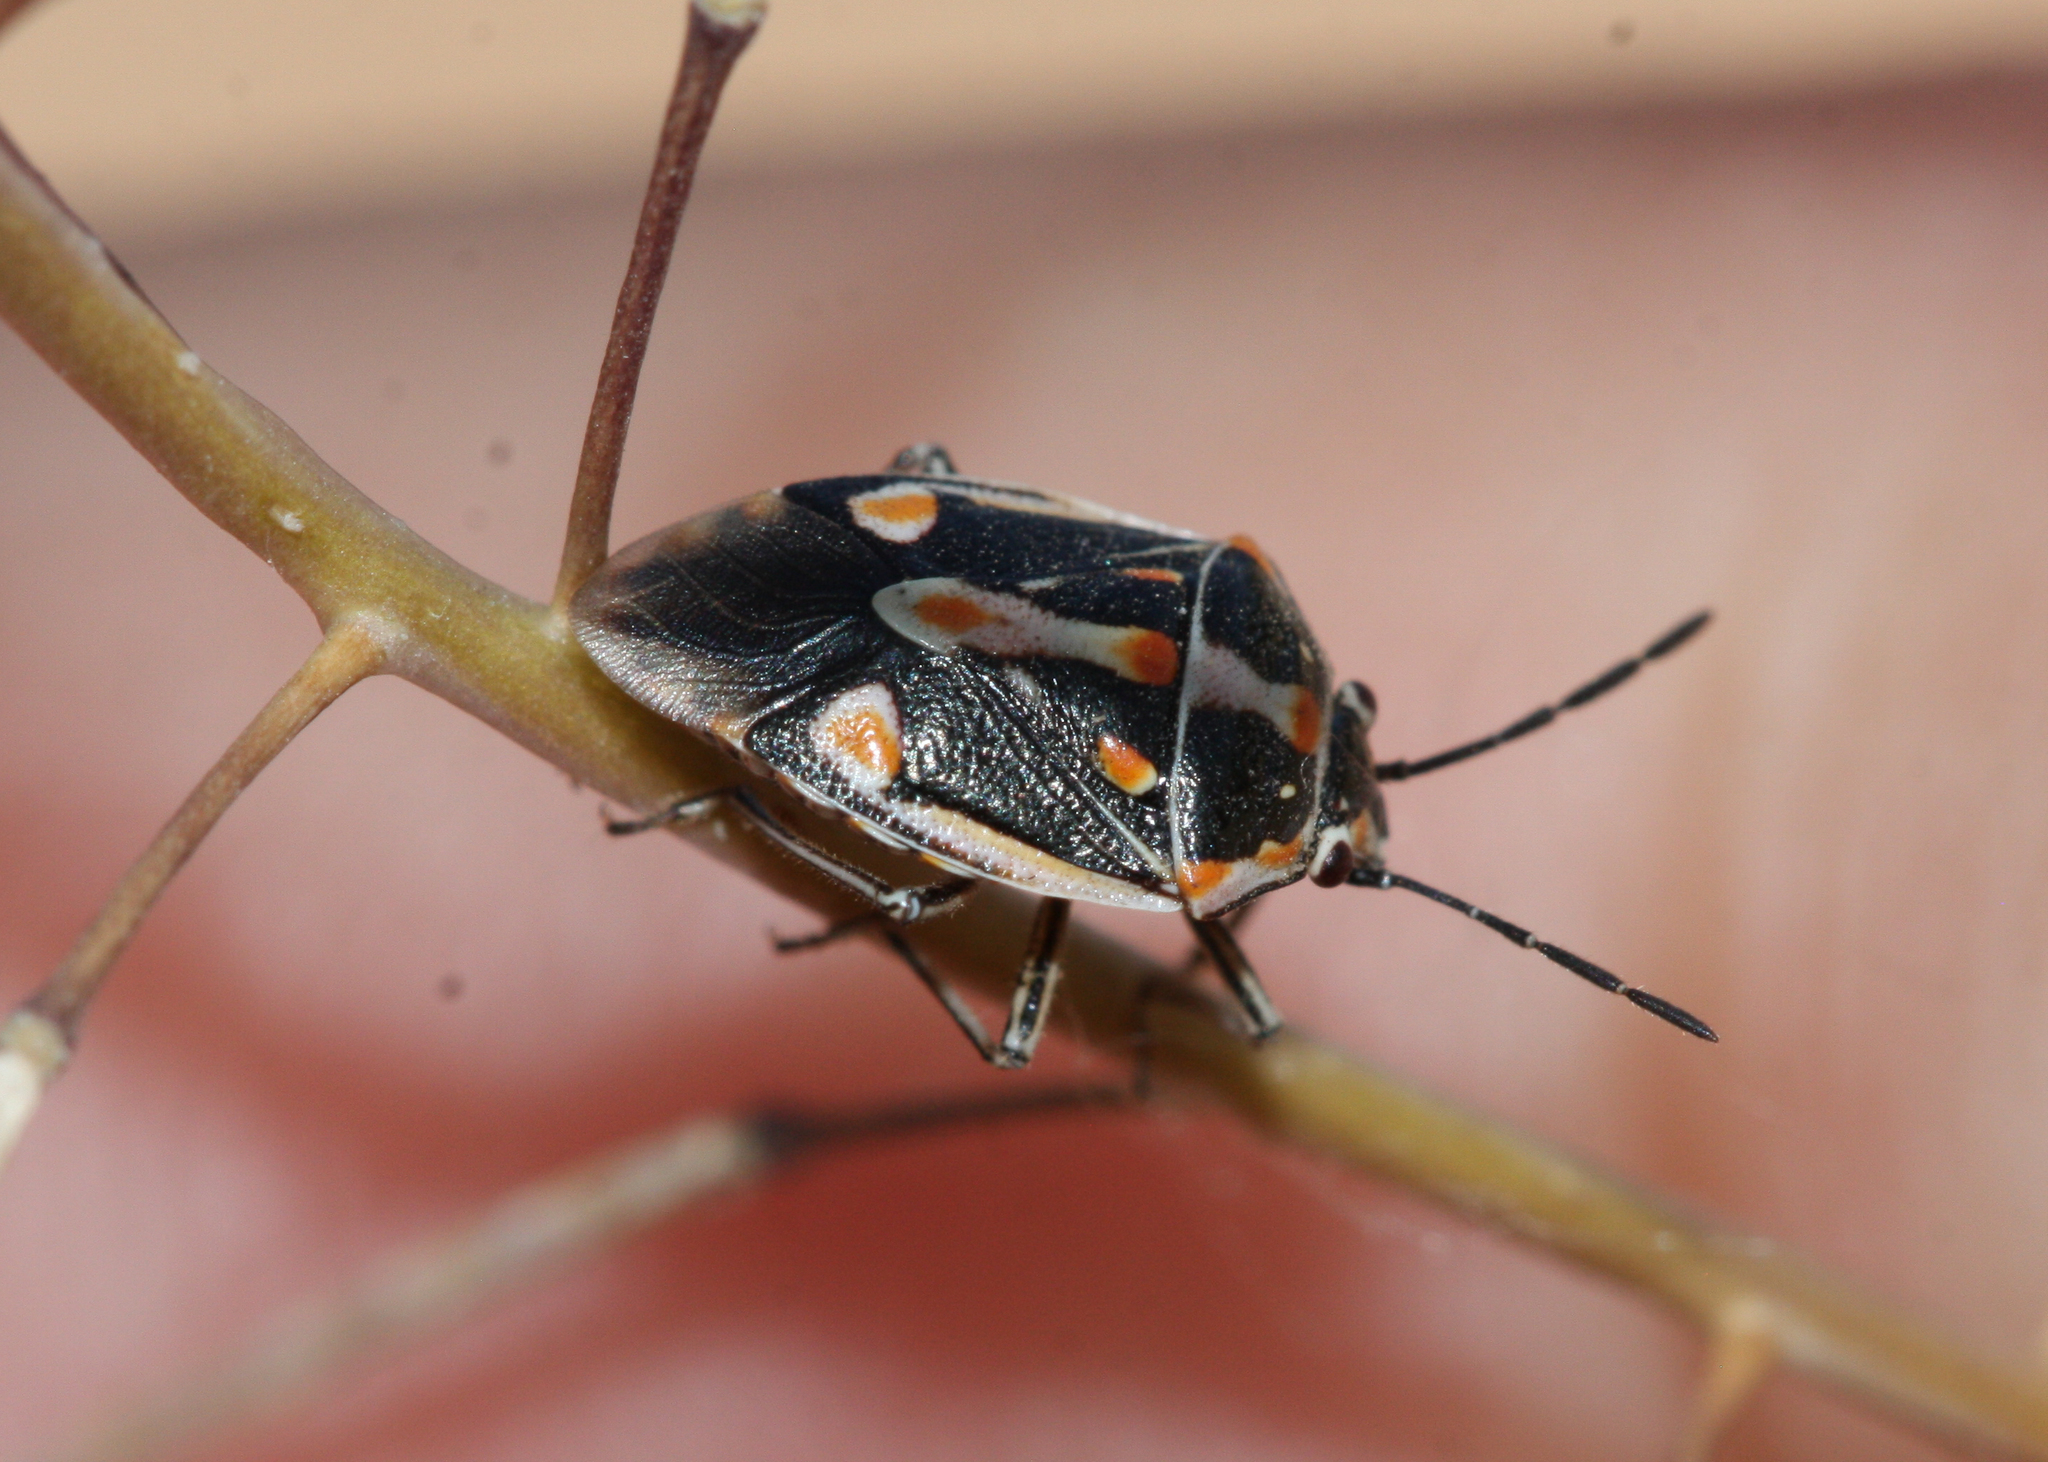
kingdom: Animalia
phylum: Arthropoda
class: Insecta
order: Hemiptera
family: Pentatomidae
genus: Bagrada
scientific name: Bagrada hilaris
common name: Bagrada bug
